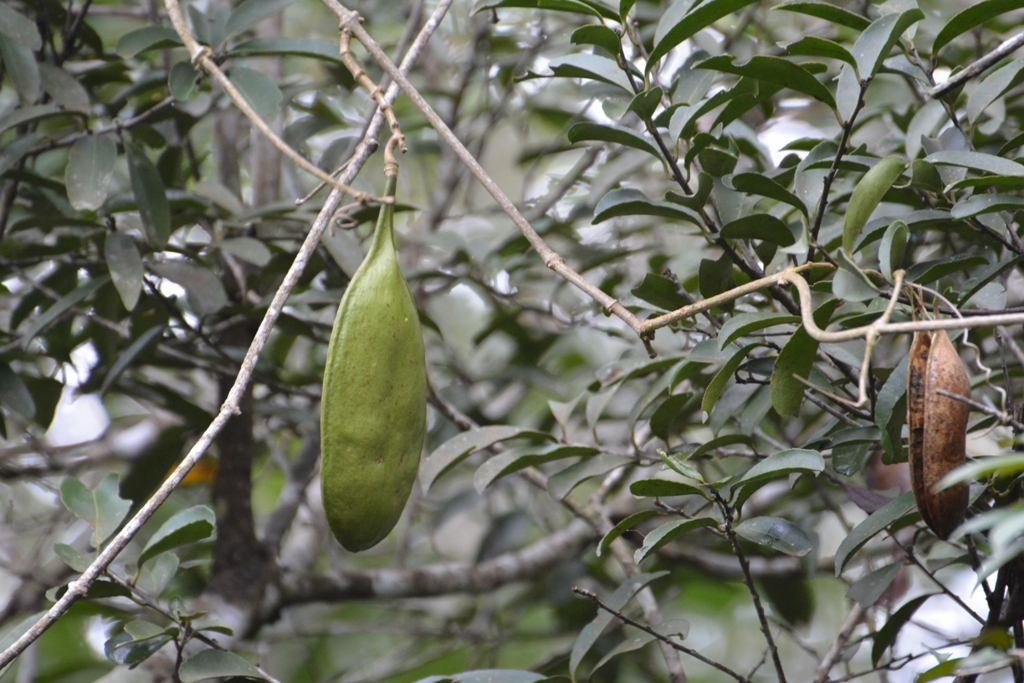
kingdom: Plantae
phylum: Tracheophyta
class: Magnoliopsida
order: Lamiales
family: Bignoniaceae
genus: Anemopaegma
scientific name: Anemopaegma puberulum
